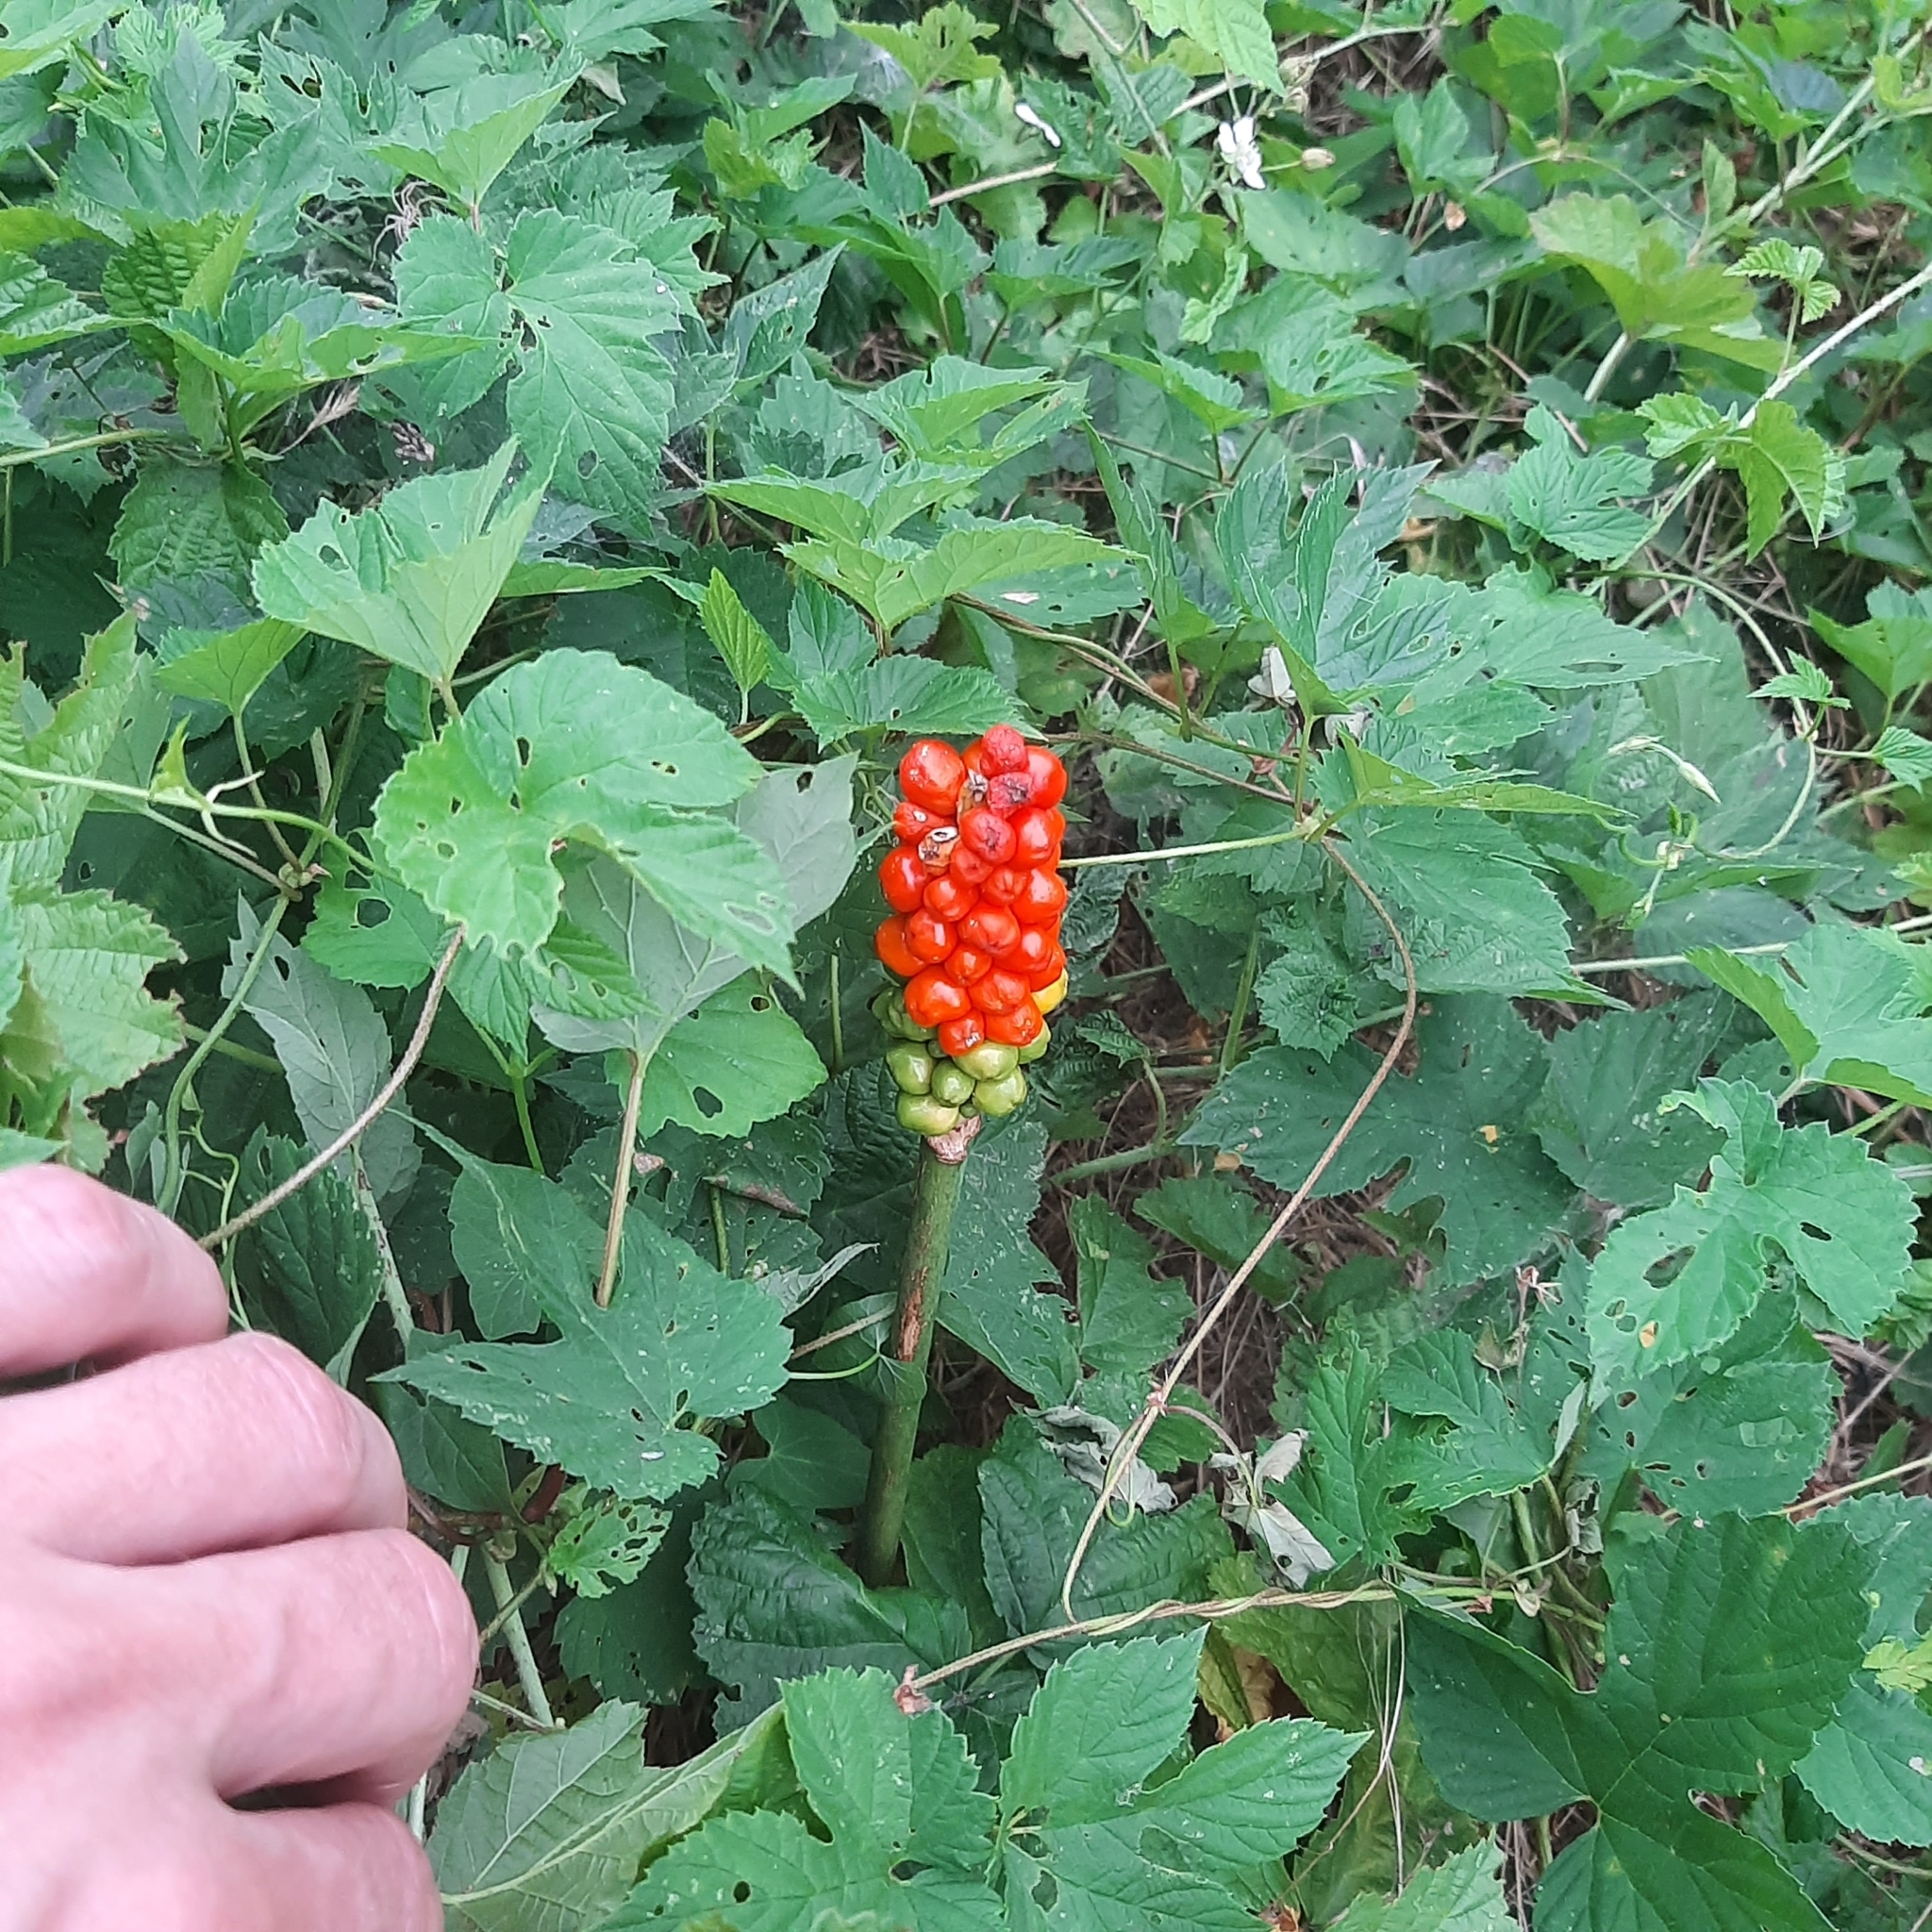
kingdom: Plantae
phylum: Tracheophyta
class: Liliopsida
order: Alismatales
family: Araceae
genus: Arum
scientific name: Arum cylindraceum
